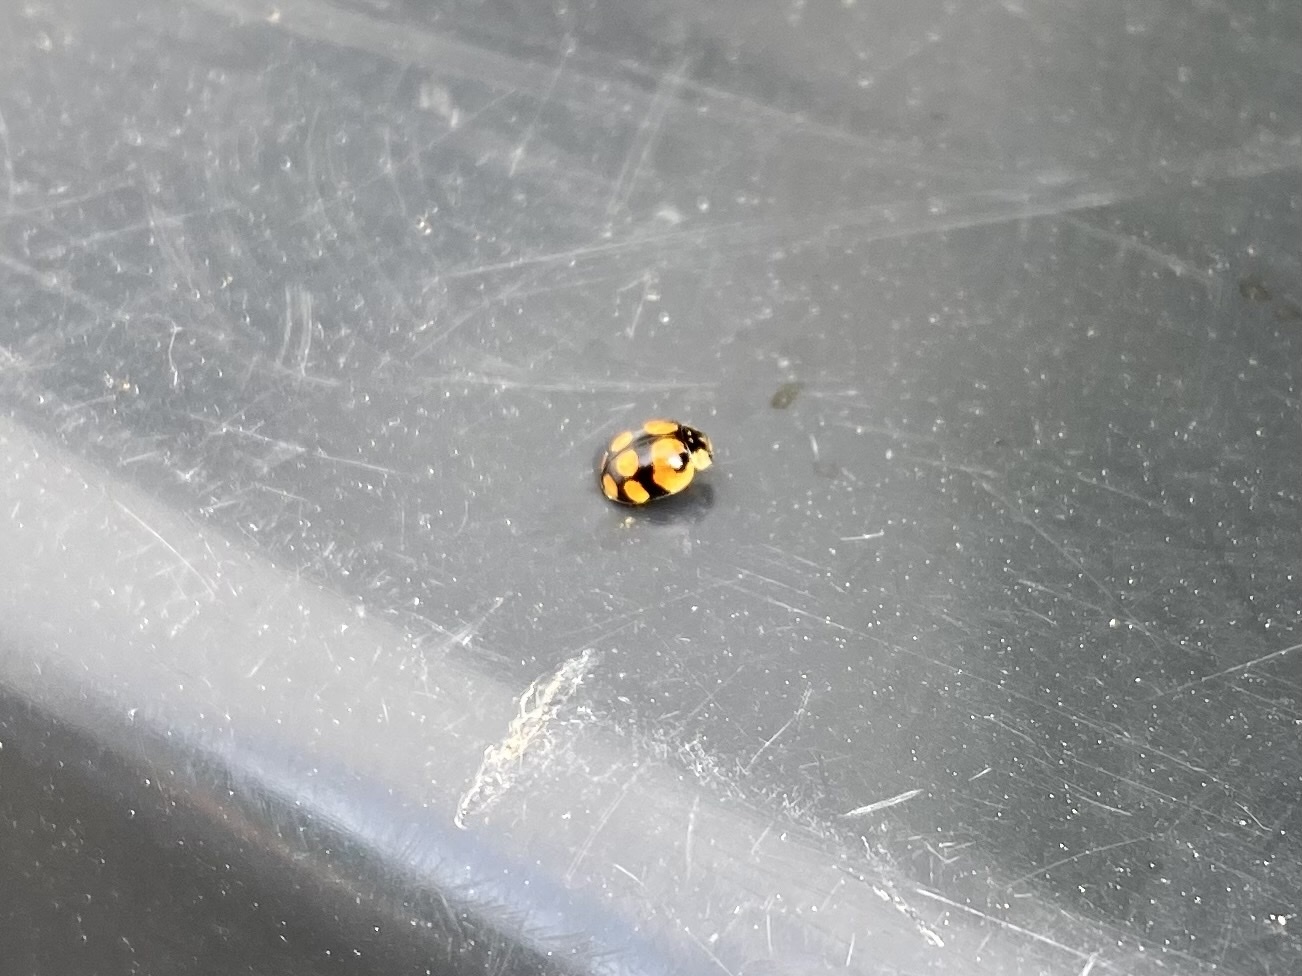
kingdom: Animalia
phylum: Arthropoda
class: Insecta
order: Coleoptera
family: Coccinellidae
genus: Adalia
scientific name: Adalia decempunctata
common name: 10-spot ladybird
